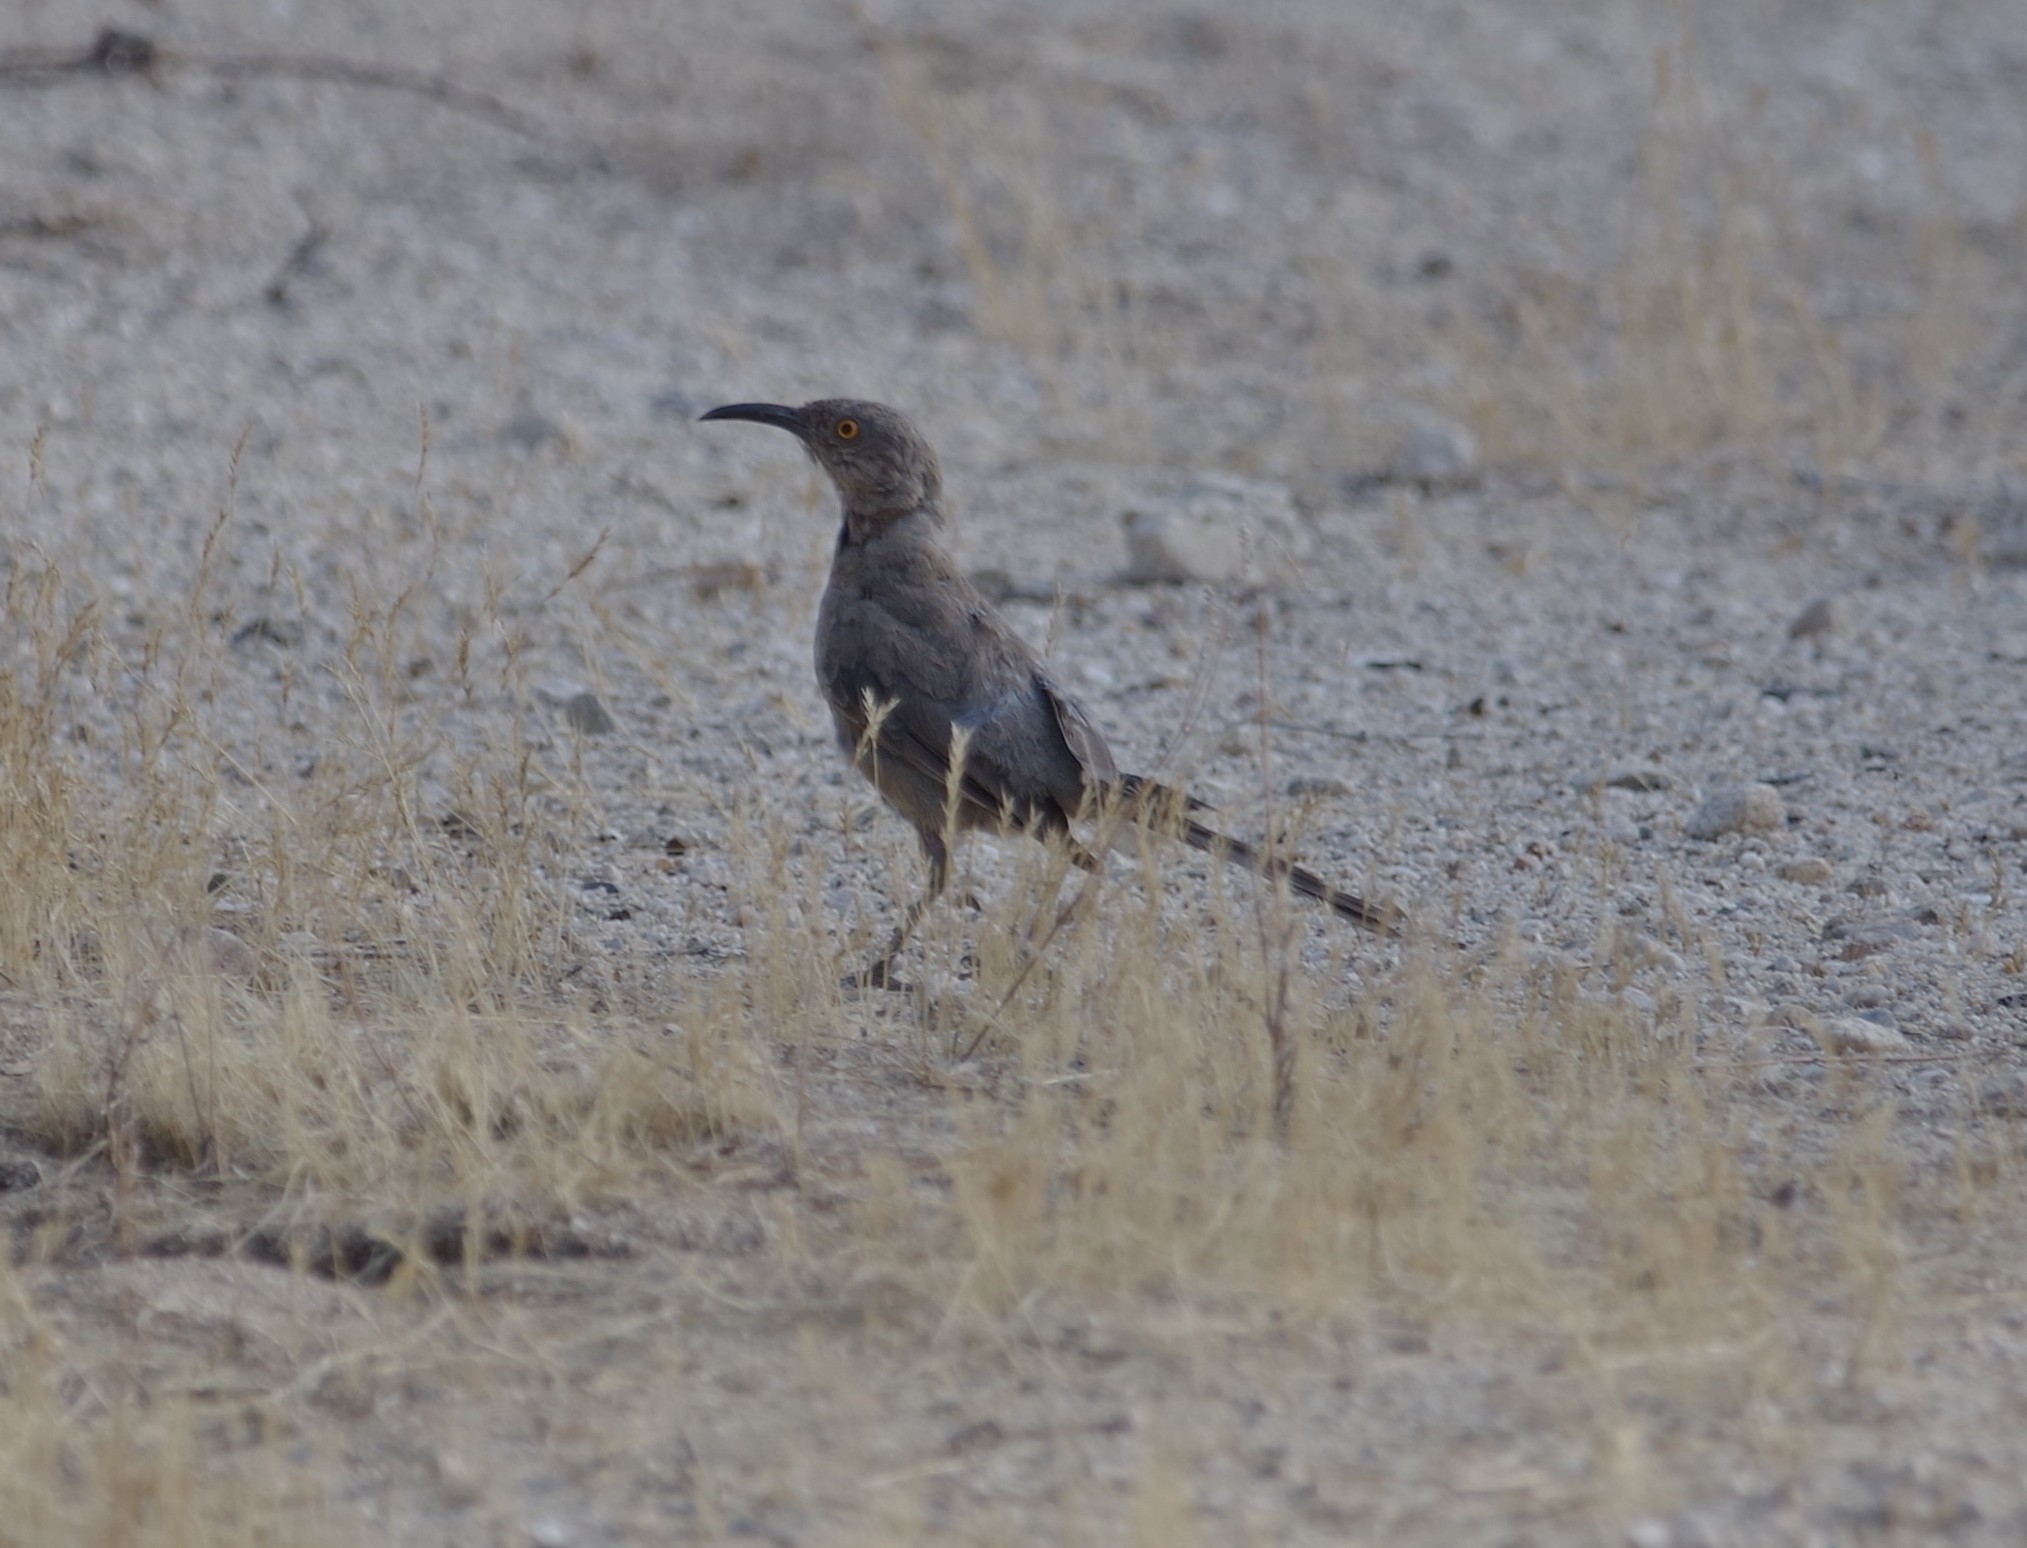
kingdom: Animalia
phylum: Chordata
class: Aves
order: Passeriformes
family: Mimidae
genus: Toxostoma
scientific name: Toxostoma curvirostre
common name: Curve-billed thrasher
